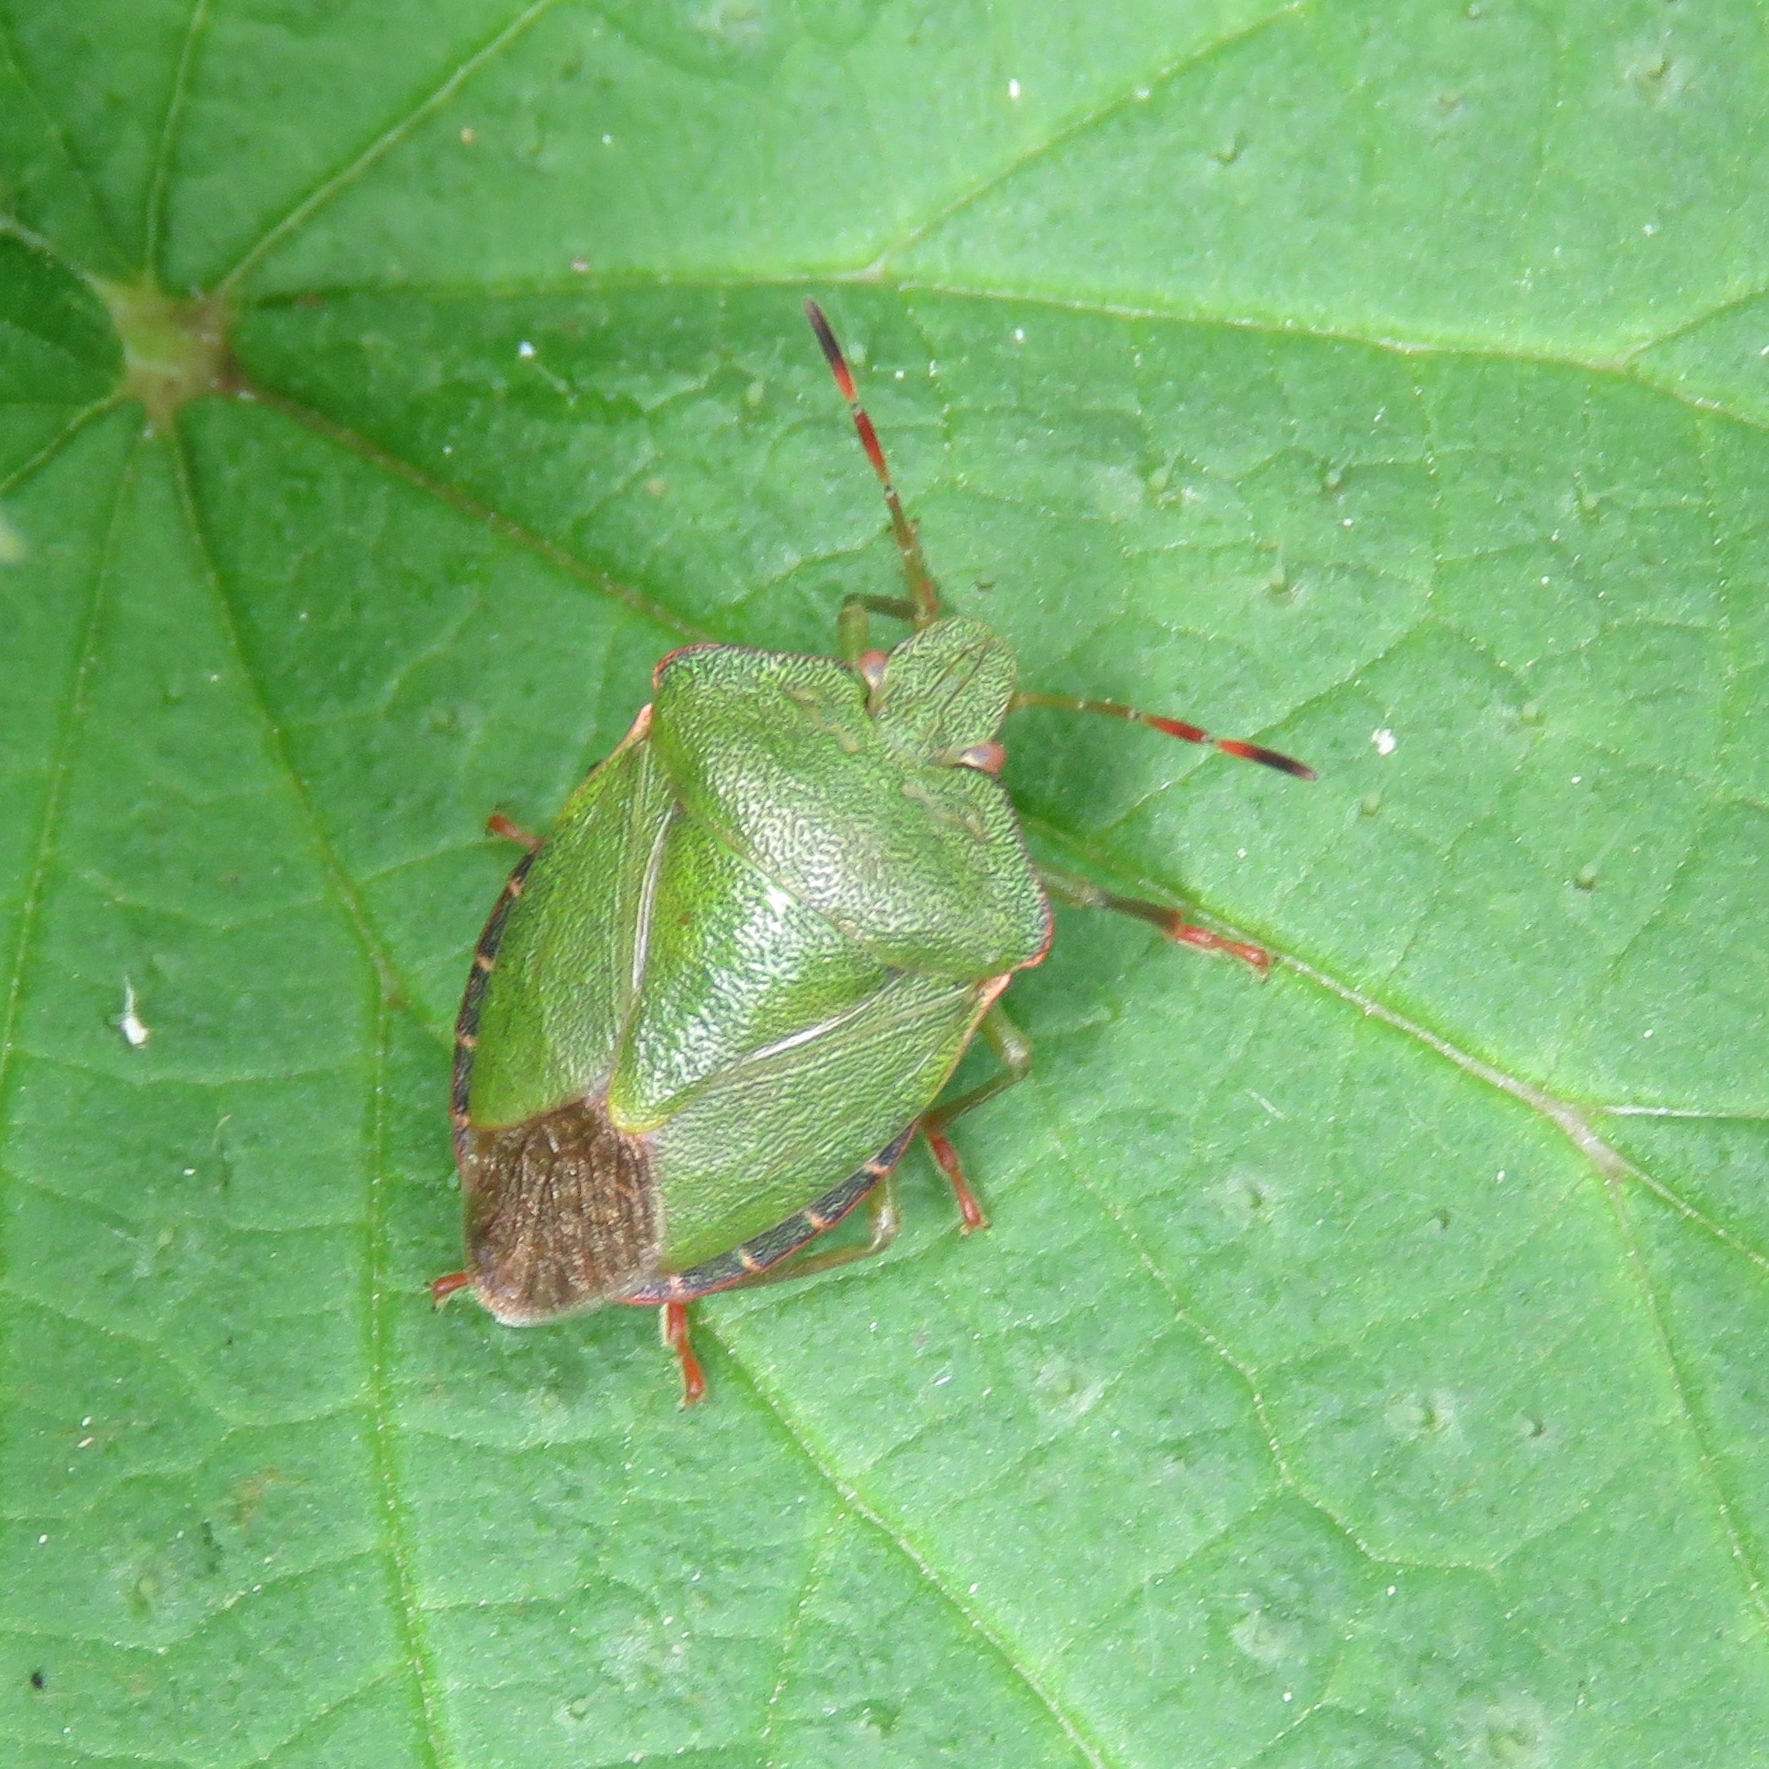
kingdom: Animalia
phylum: Arthropoda
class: Insecta
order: Hemiptera
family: Pentatomidae
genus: Palomena
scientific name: Palomena prasina
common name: Green shieldbug
